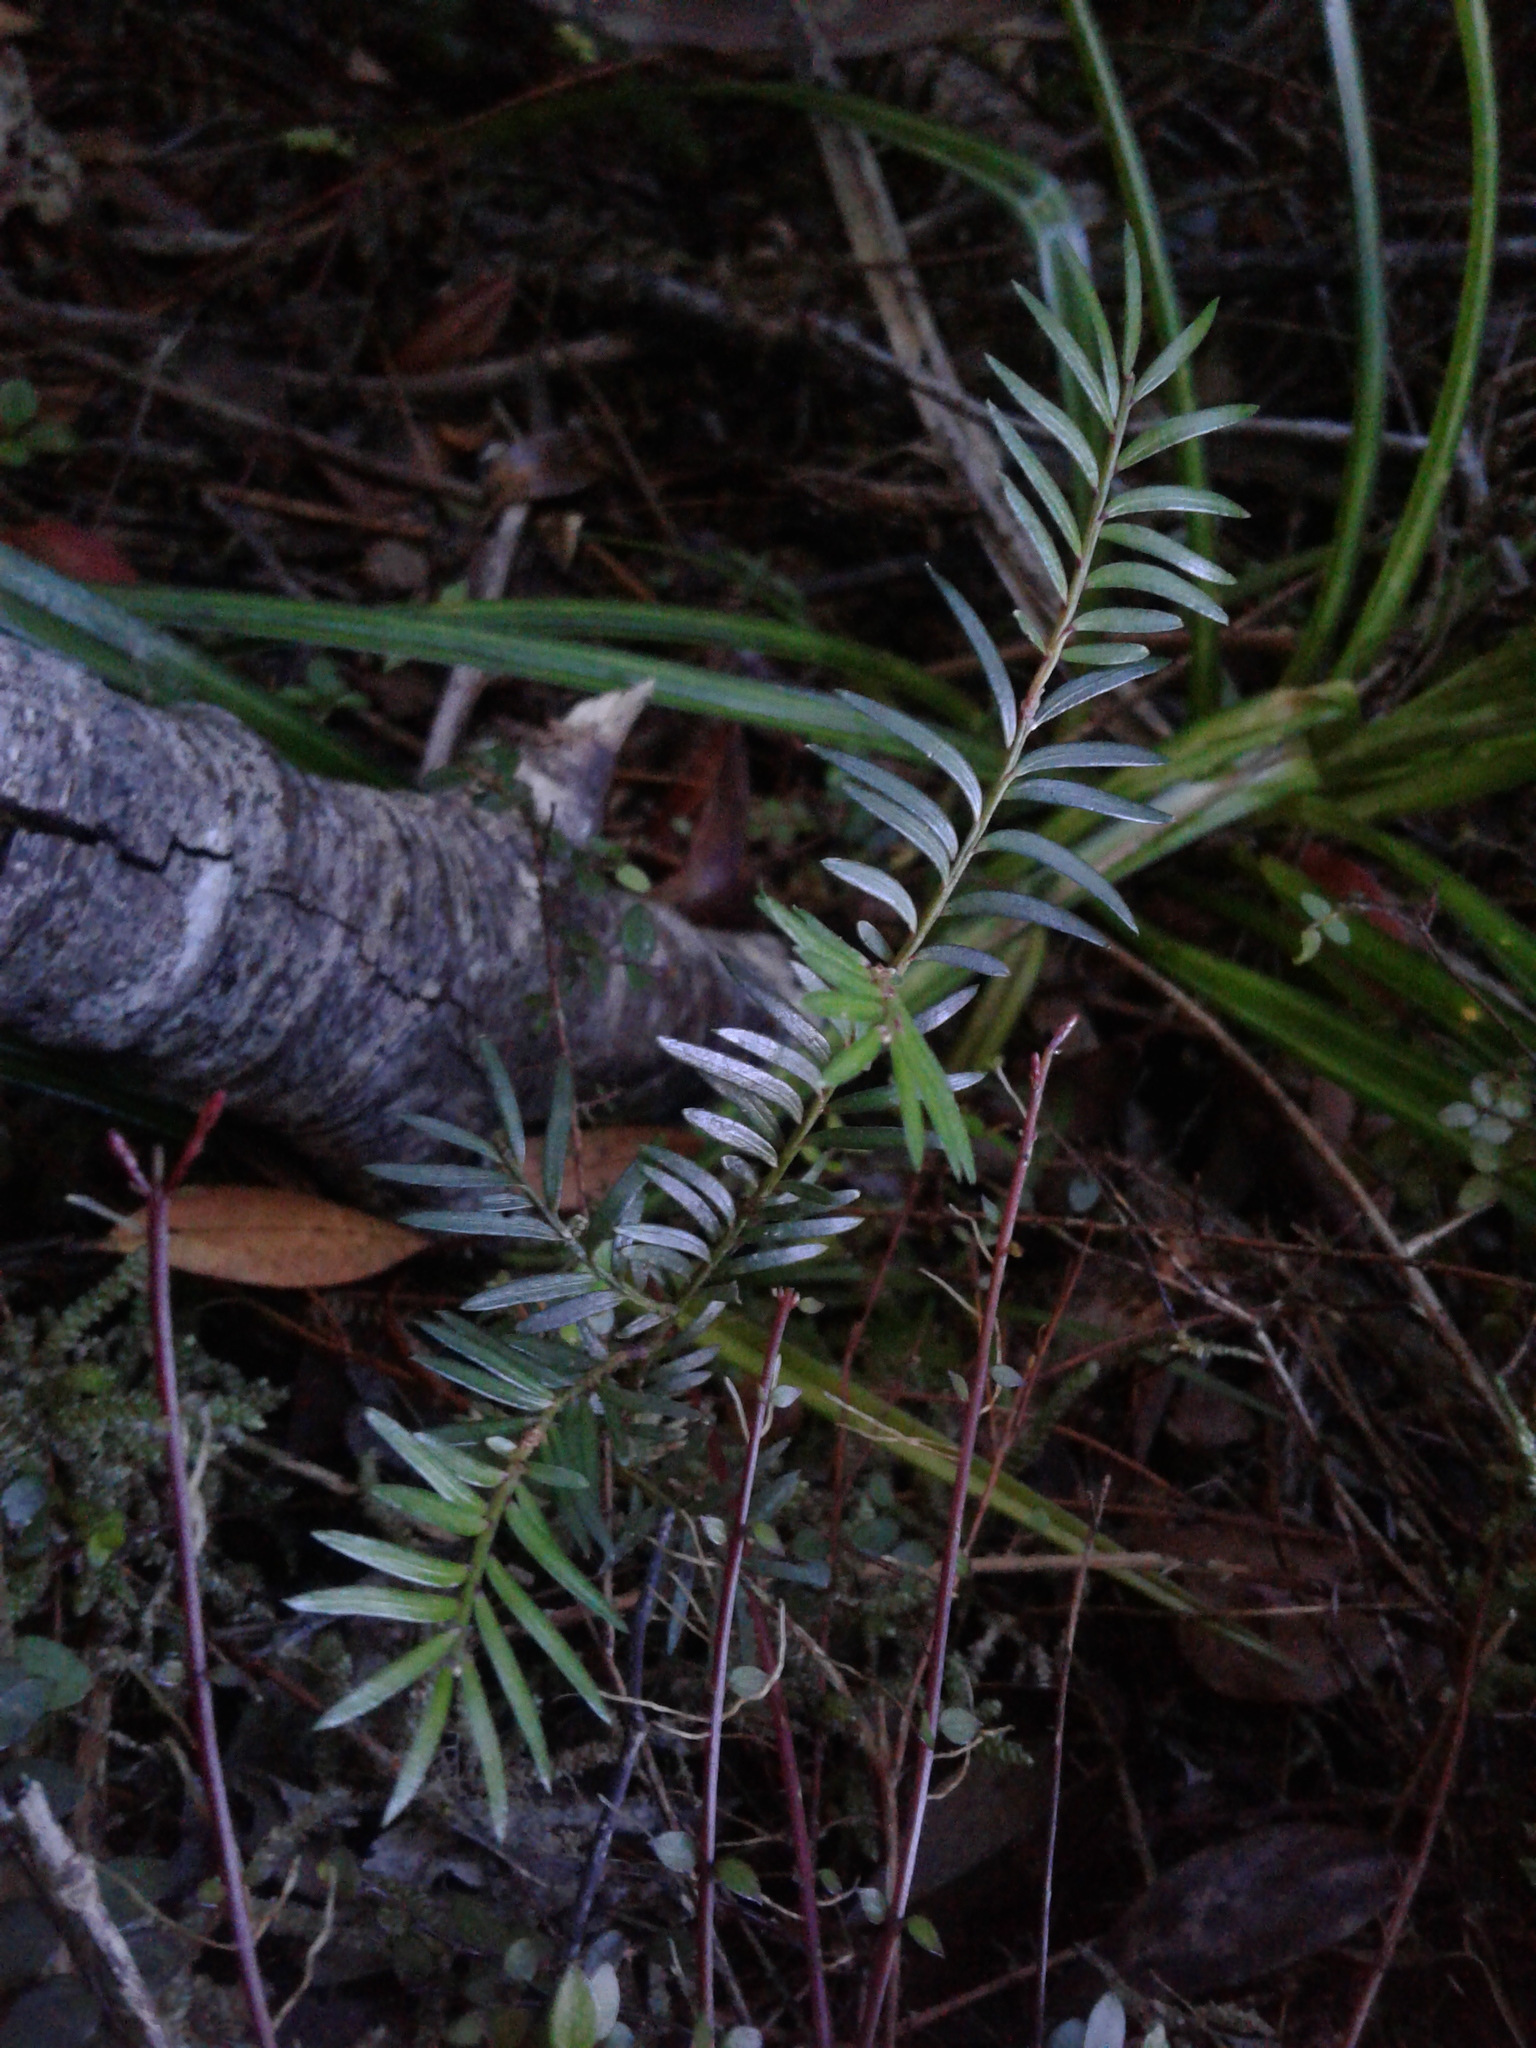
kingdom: Plantae
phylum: Tracheophyta
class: Pinopsida
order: Pinales
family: Podocarpaceae
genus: Prumnopitys
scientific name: Prumnopitys ferruginea
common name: Brown pine
